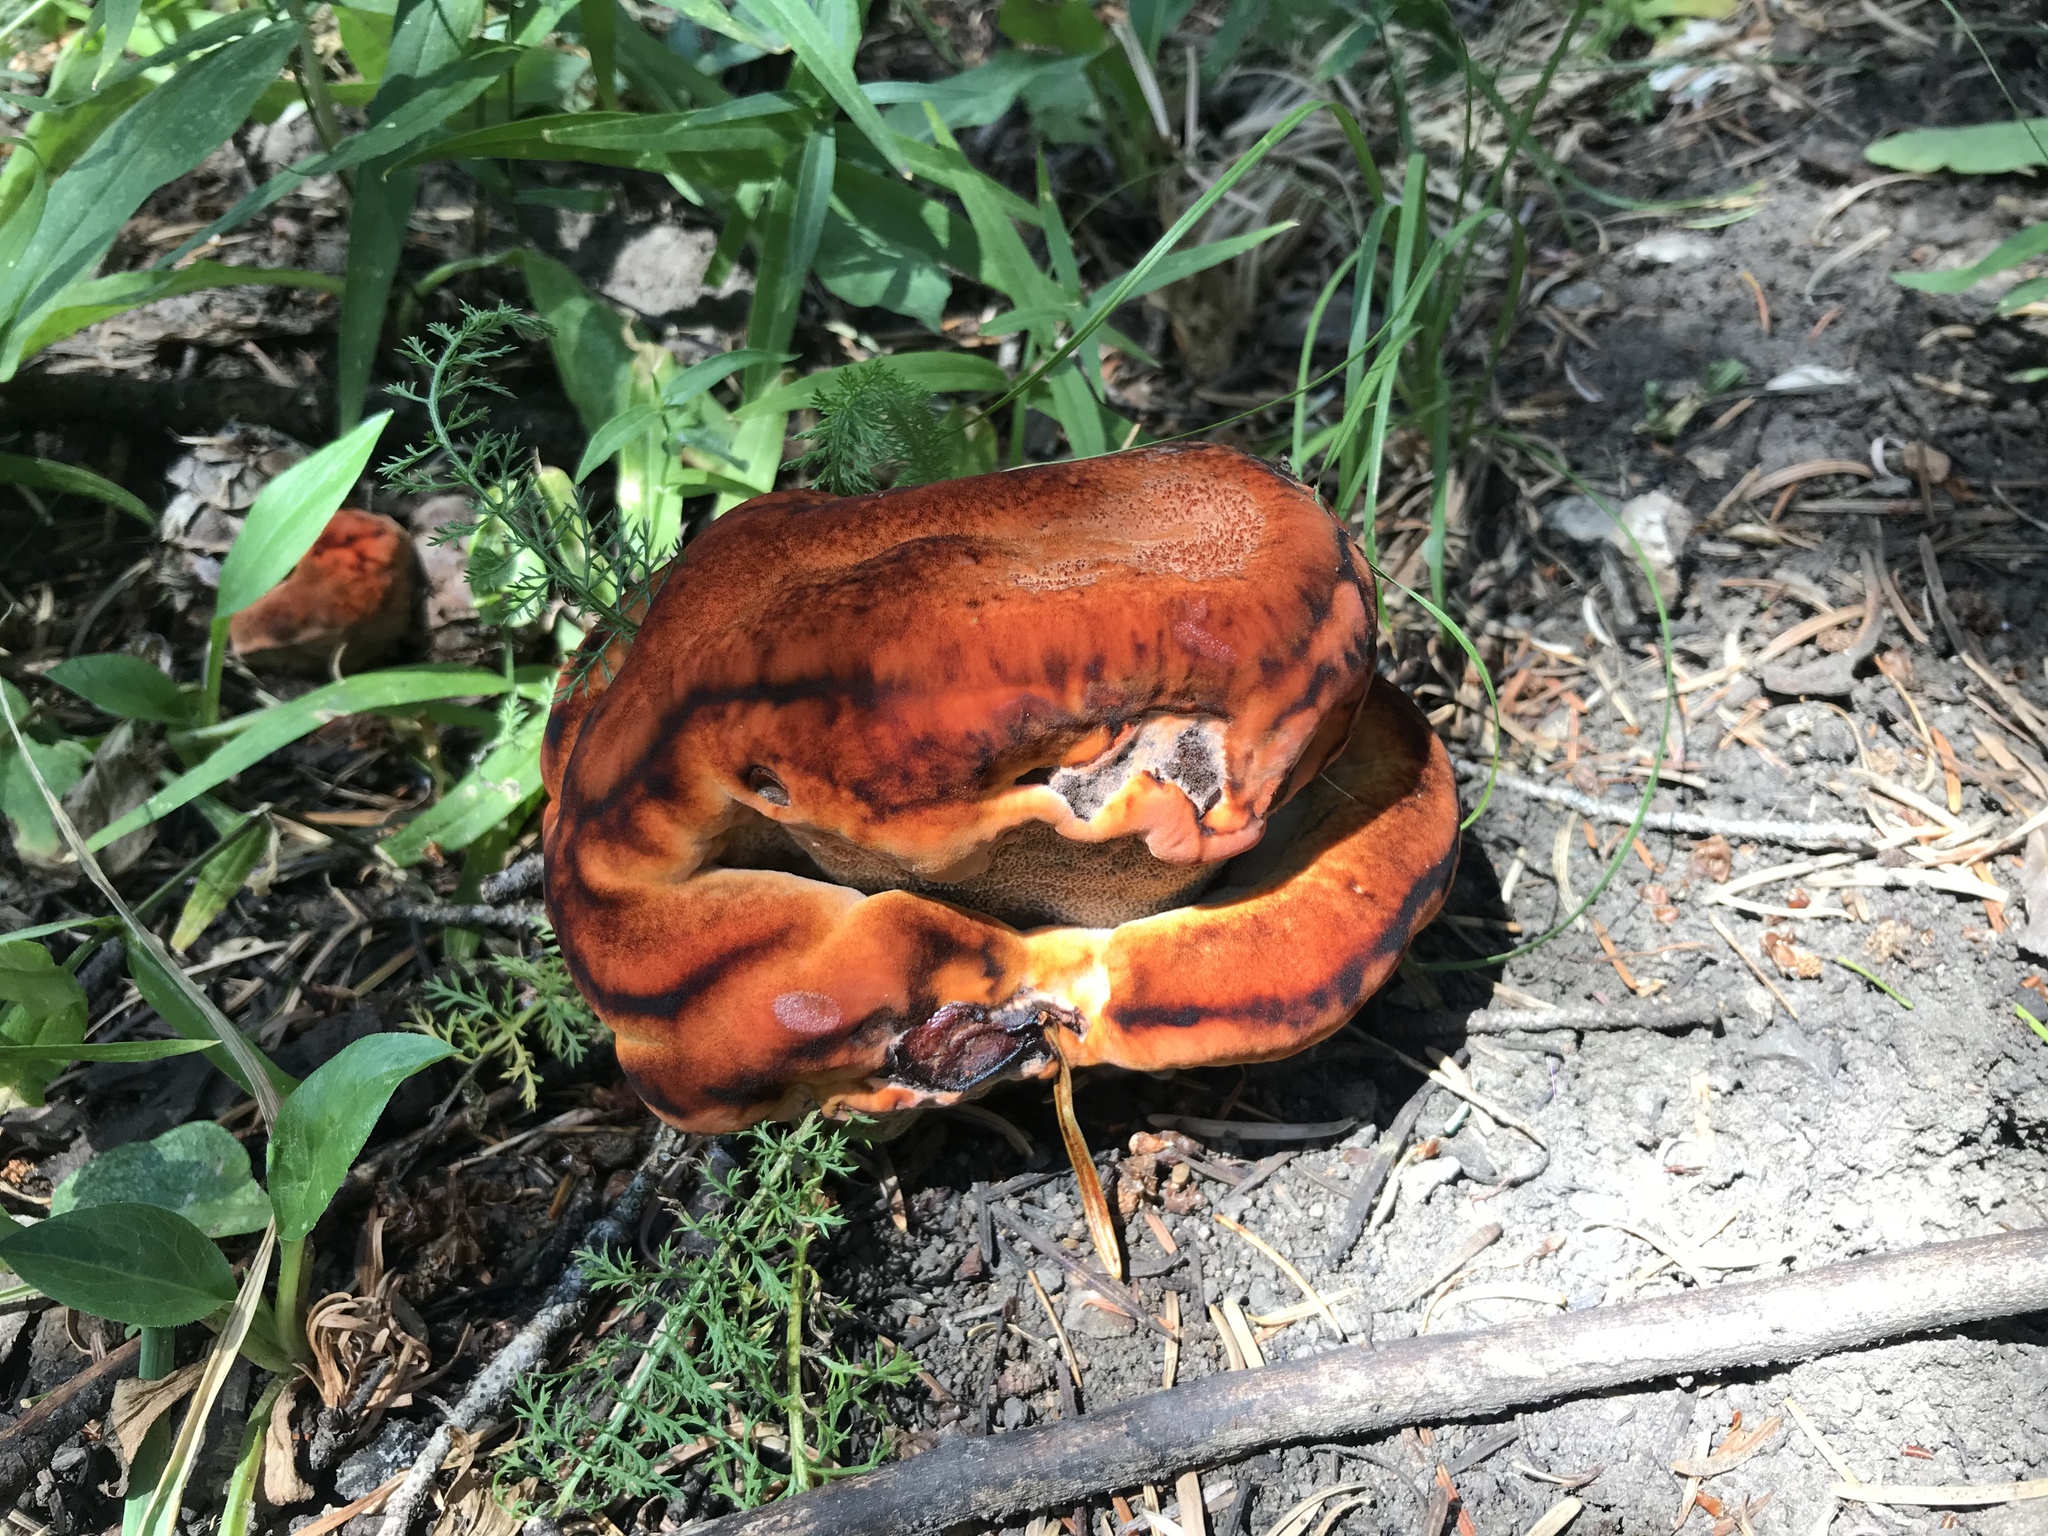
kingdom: Fungi
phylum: Basidiomycota
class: Agaricomycetes
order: Polyporales
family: Laetiporaceae
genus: Phaeolus
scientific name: Phaeolus schweinitzii
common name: Dyer's mazegill
